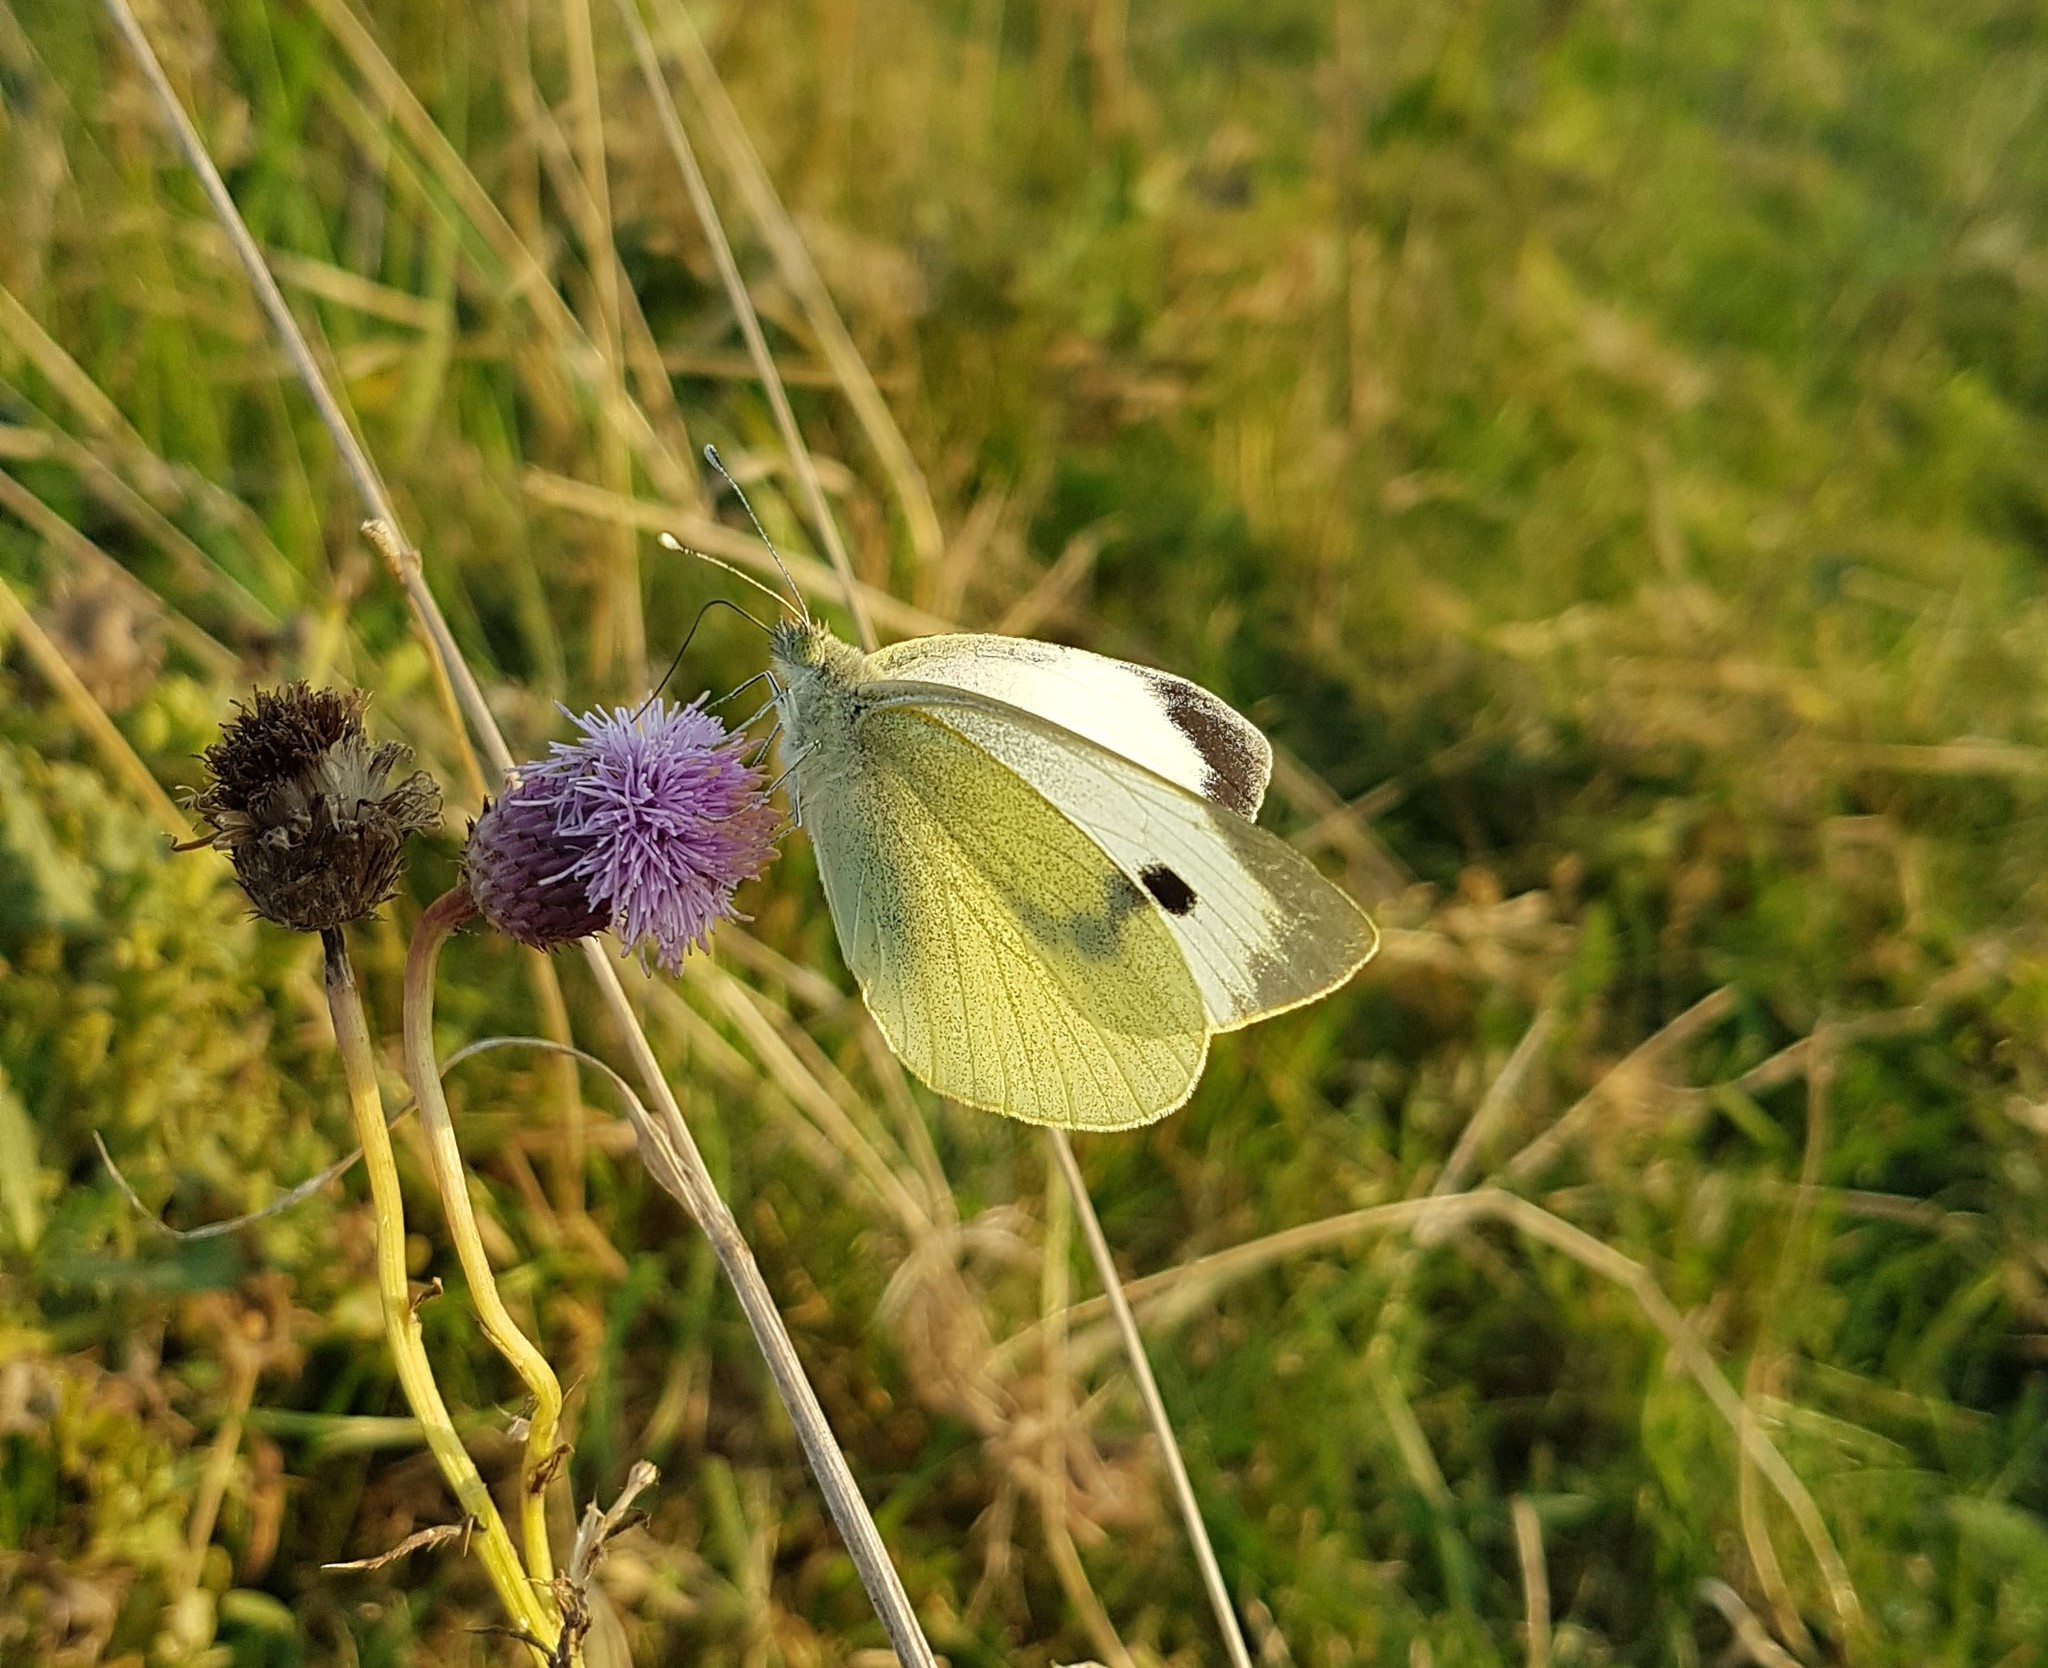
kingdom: Animalia
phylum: Arthropoda
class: Insecta
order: Lepidoptera
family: Pieridae
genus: Pieris
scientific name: Pieris brassicae
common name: Large white
